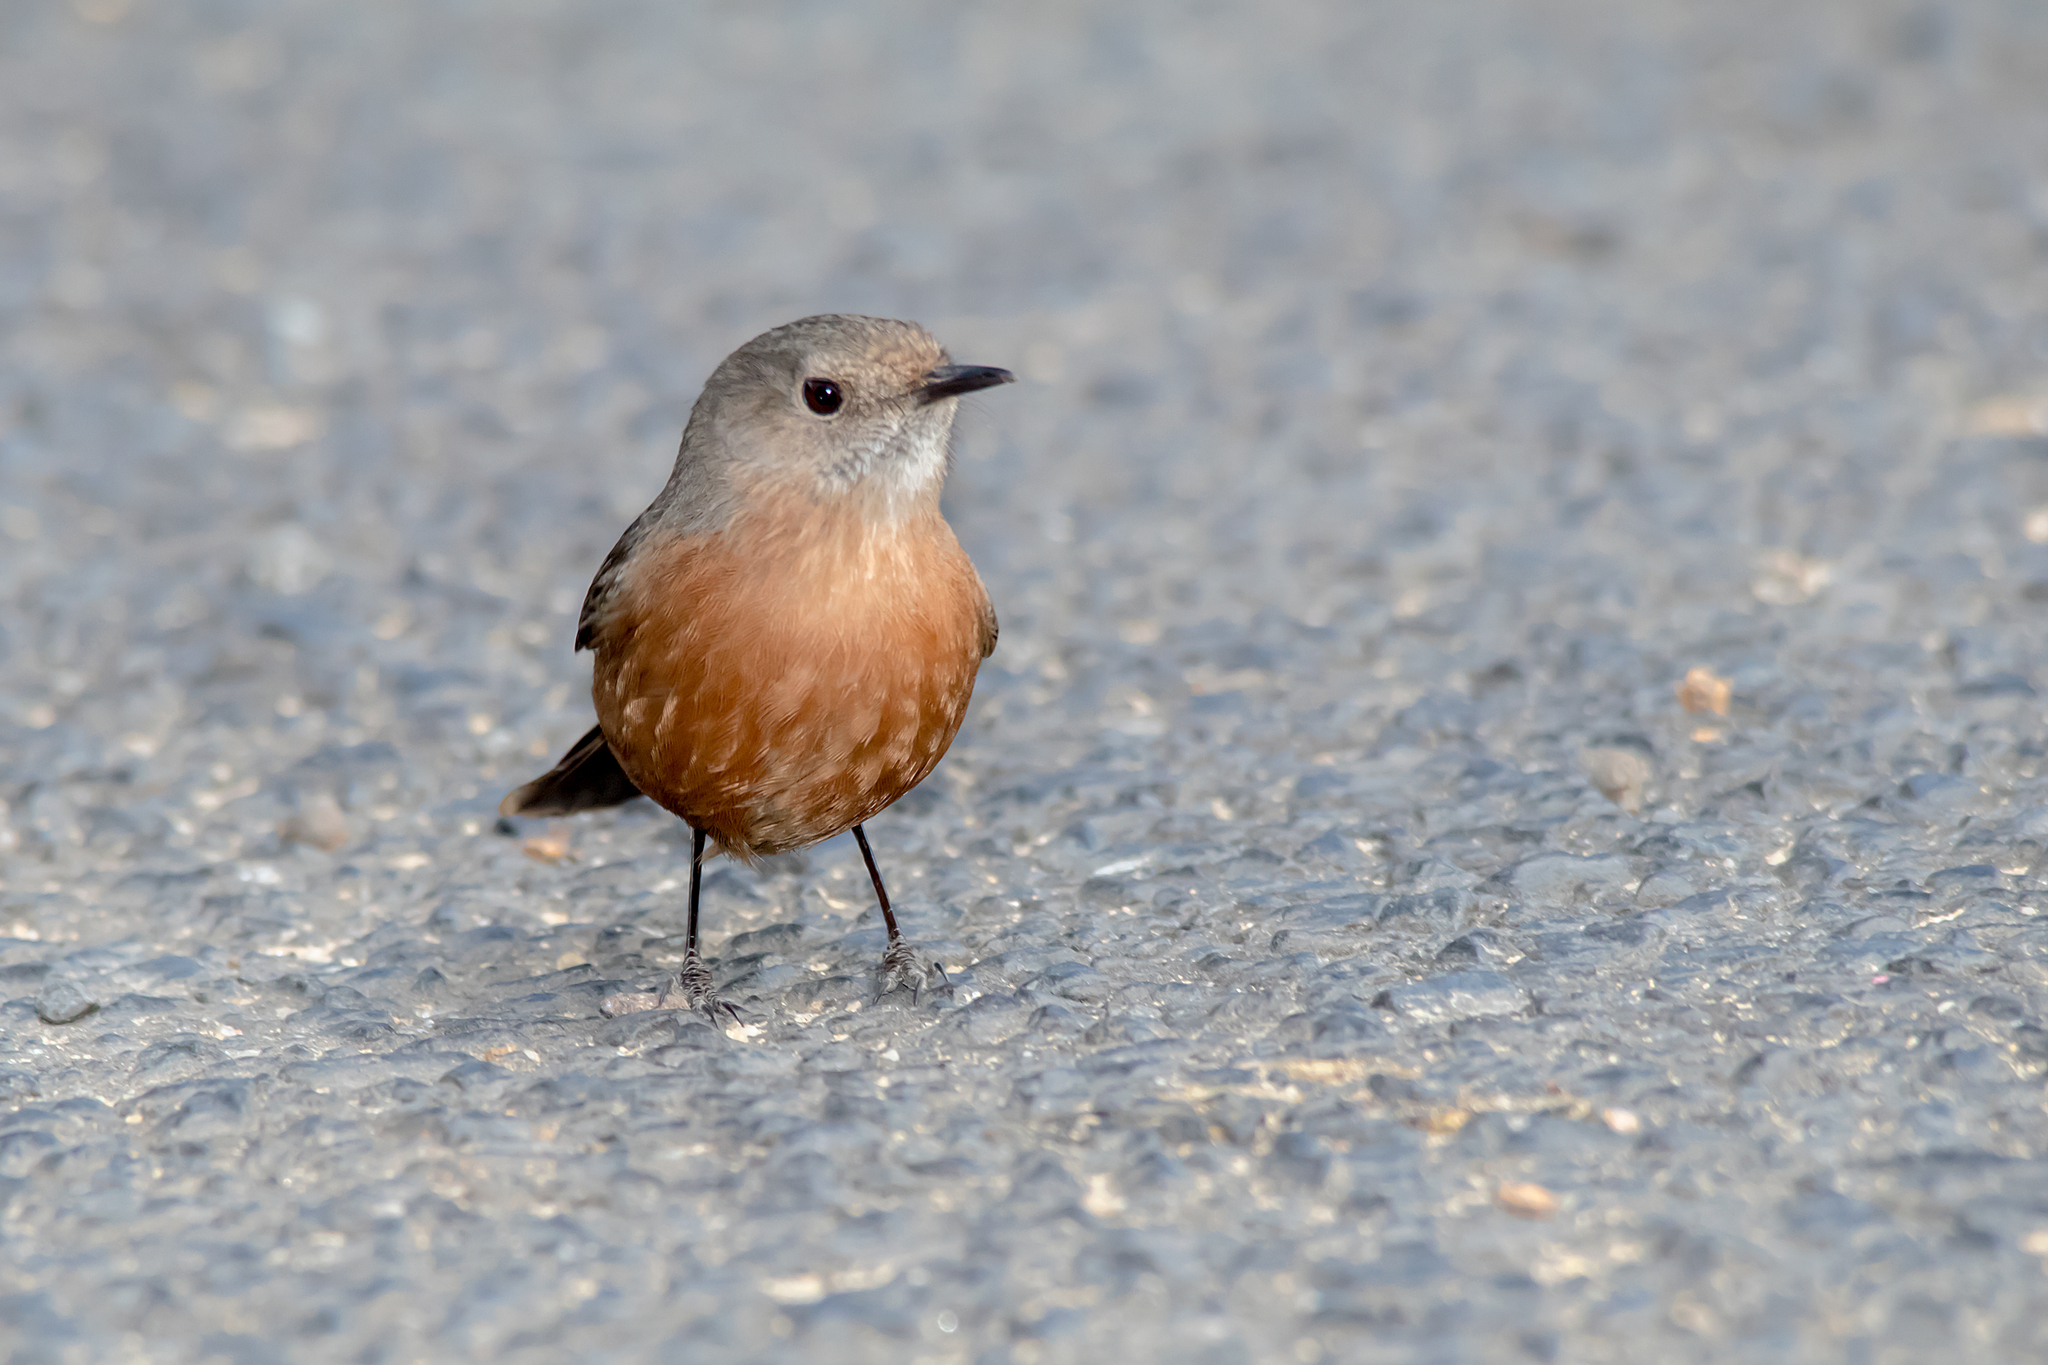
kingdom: Animalia
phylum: Chordata
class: Aves
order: Passeriformes
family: Acanthizidae
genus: Origma
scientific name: Origma solitaria
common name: Rockwarbler
